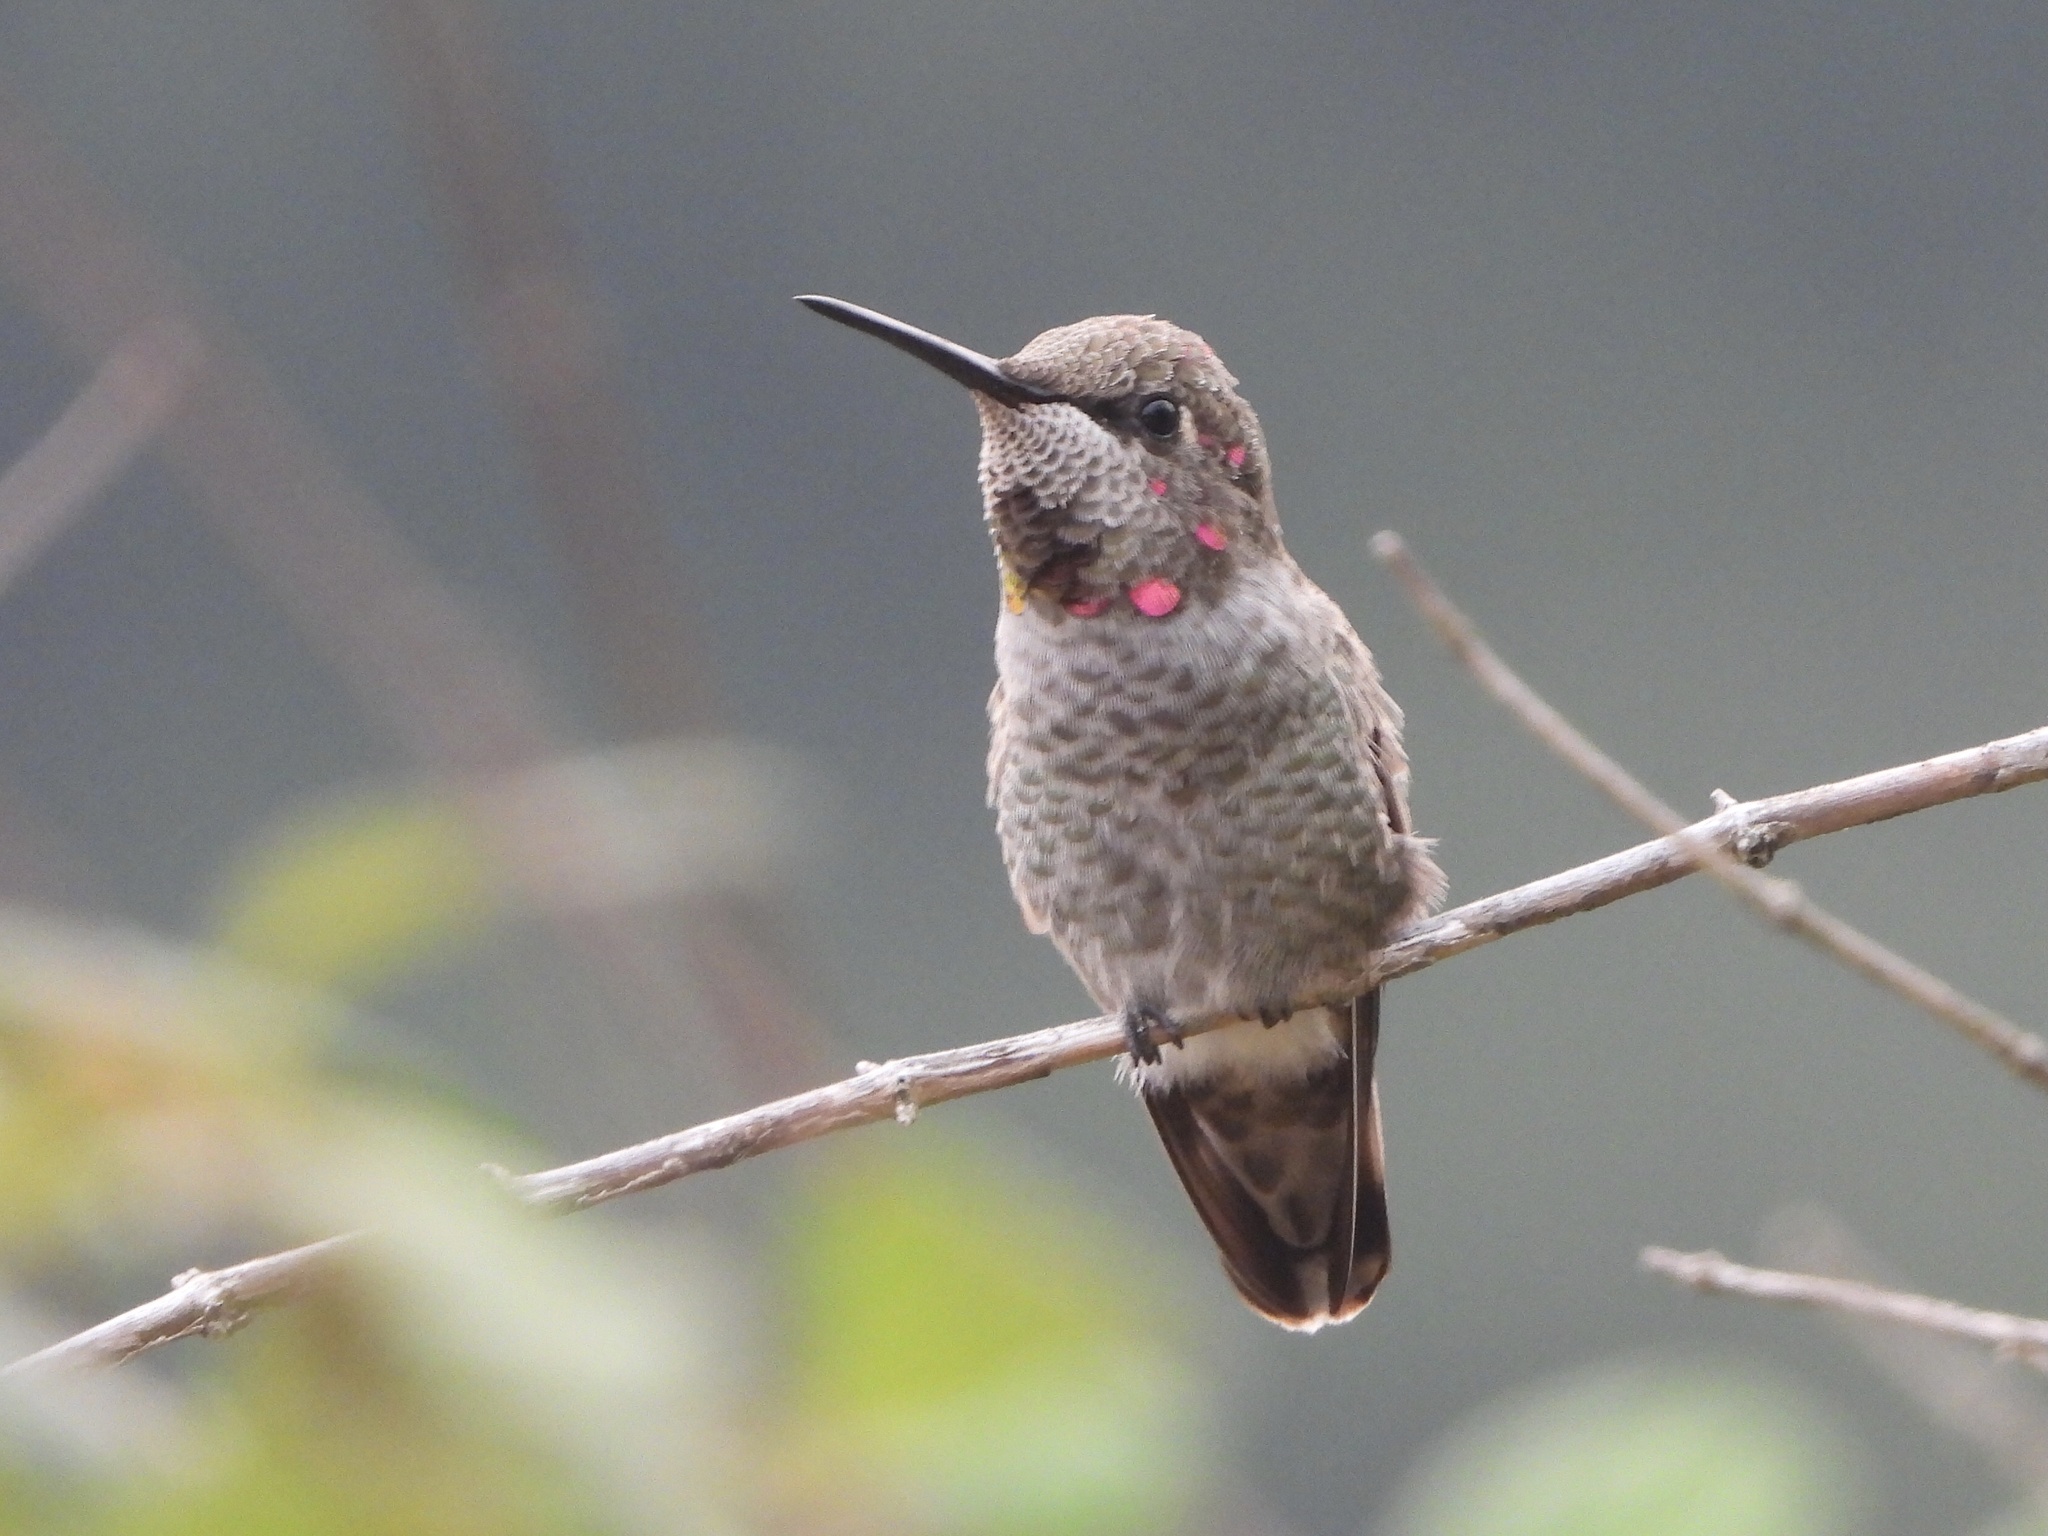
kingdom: Animalia
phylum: Chordata
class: Aves
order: Apodiformes
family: Trochilidae
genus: Calypte
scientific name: Calypte anna
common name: Anna's hummingbird
